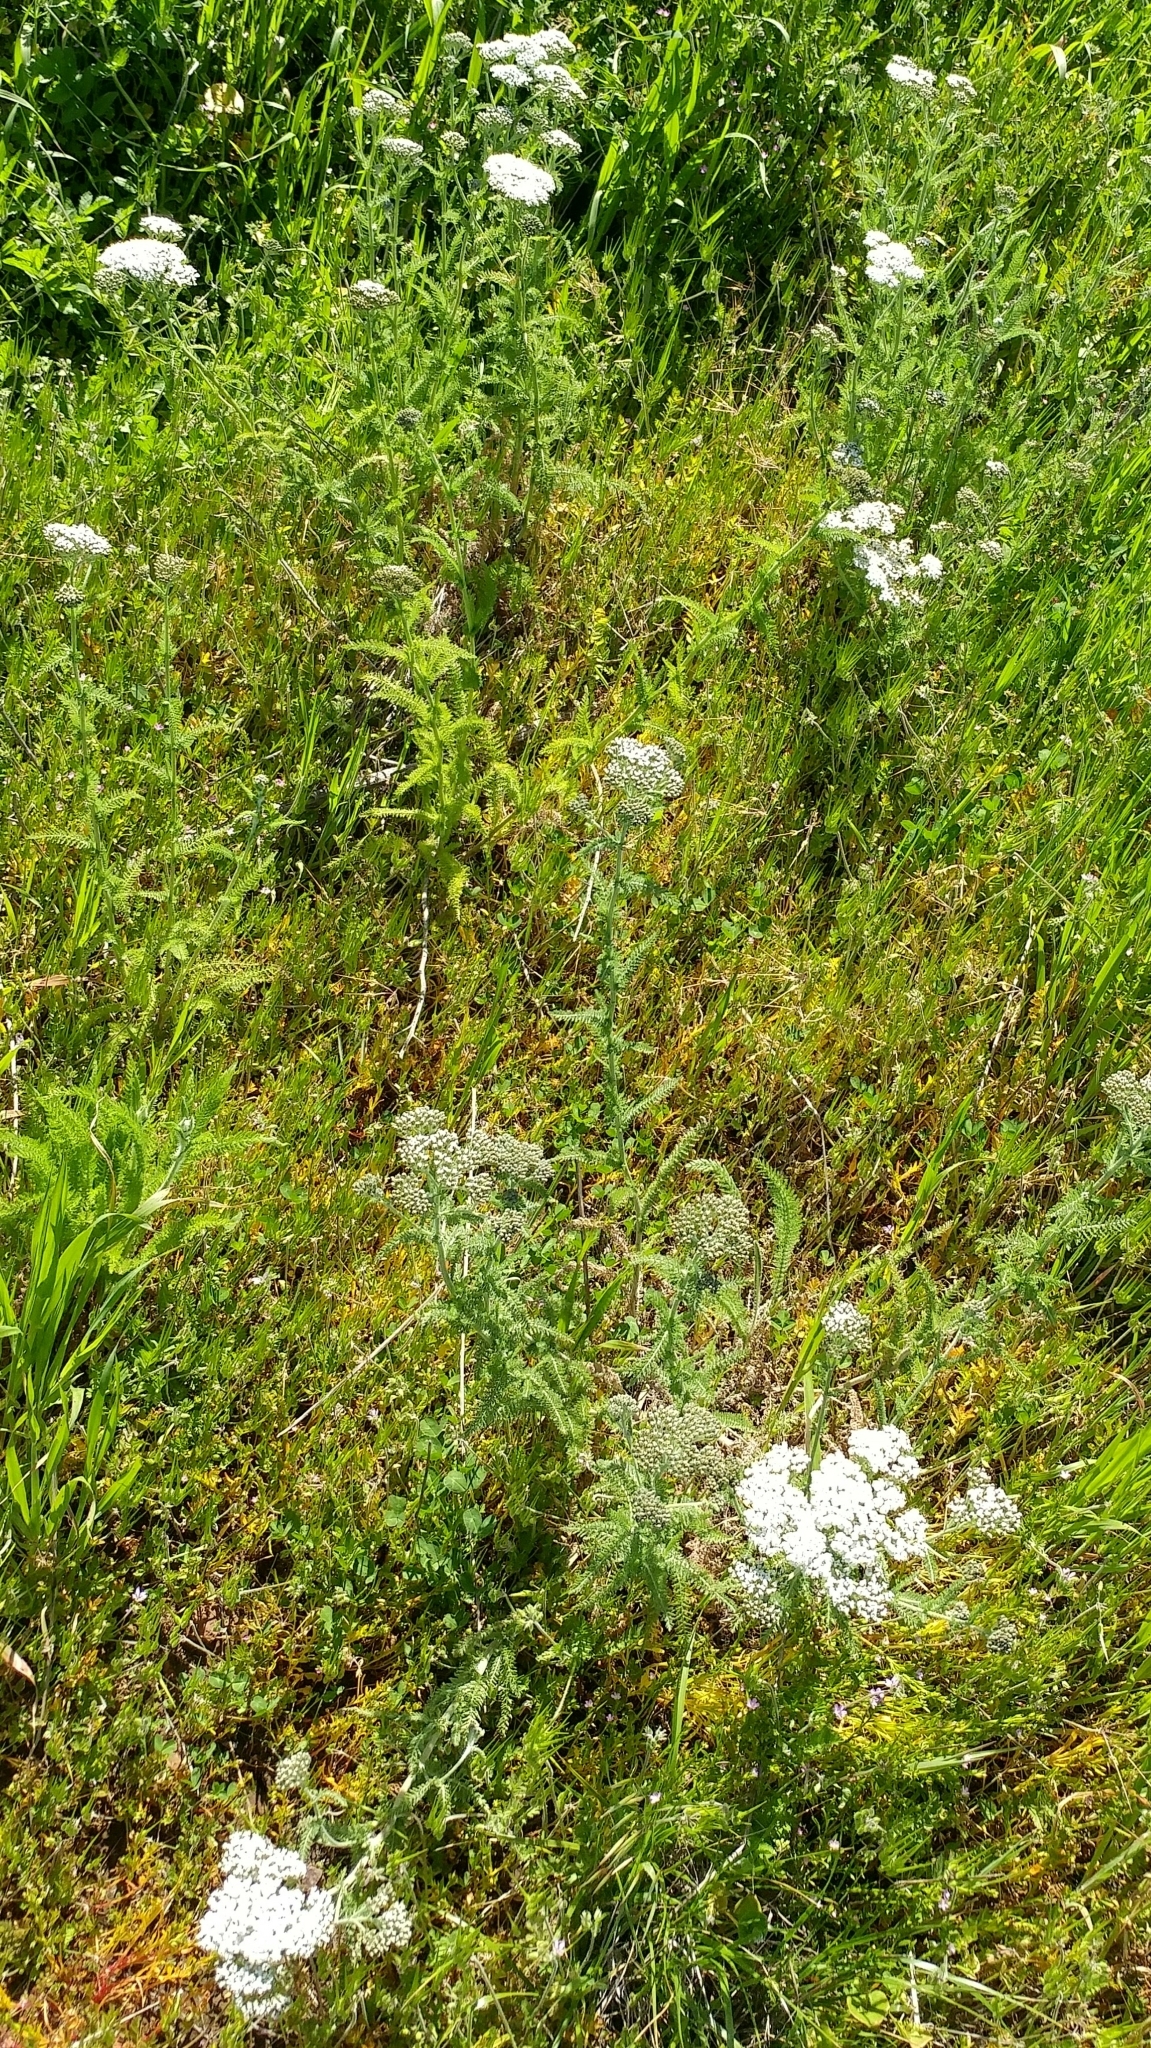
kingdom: Plantae
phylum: Tracheophyta
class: Magnoliopsida
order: Asterales
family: Asteraceae
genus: Achillea
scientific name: Achillea millefolium
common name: Yarrow
